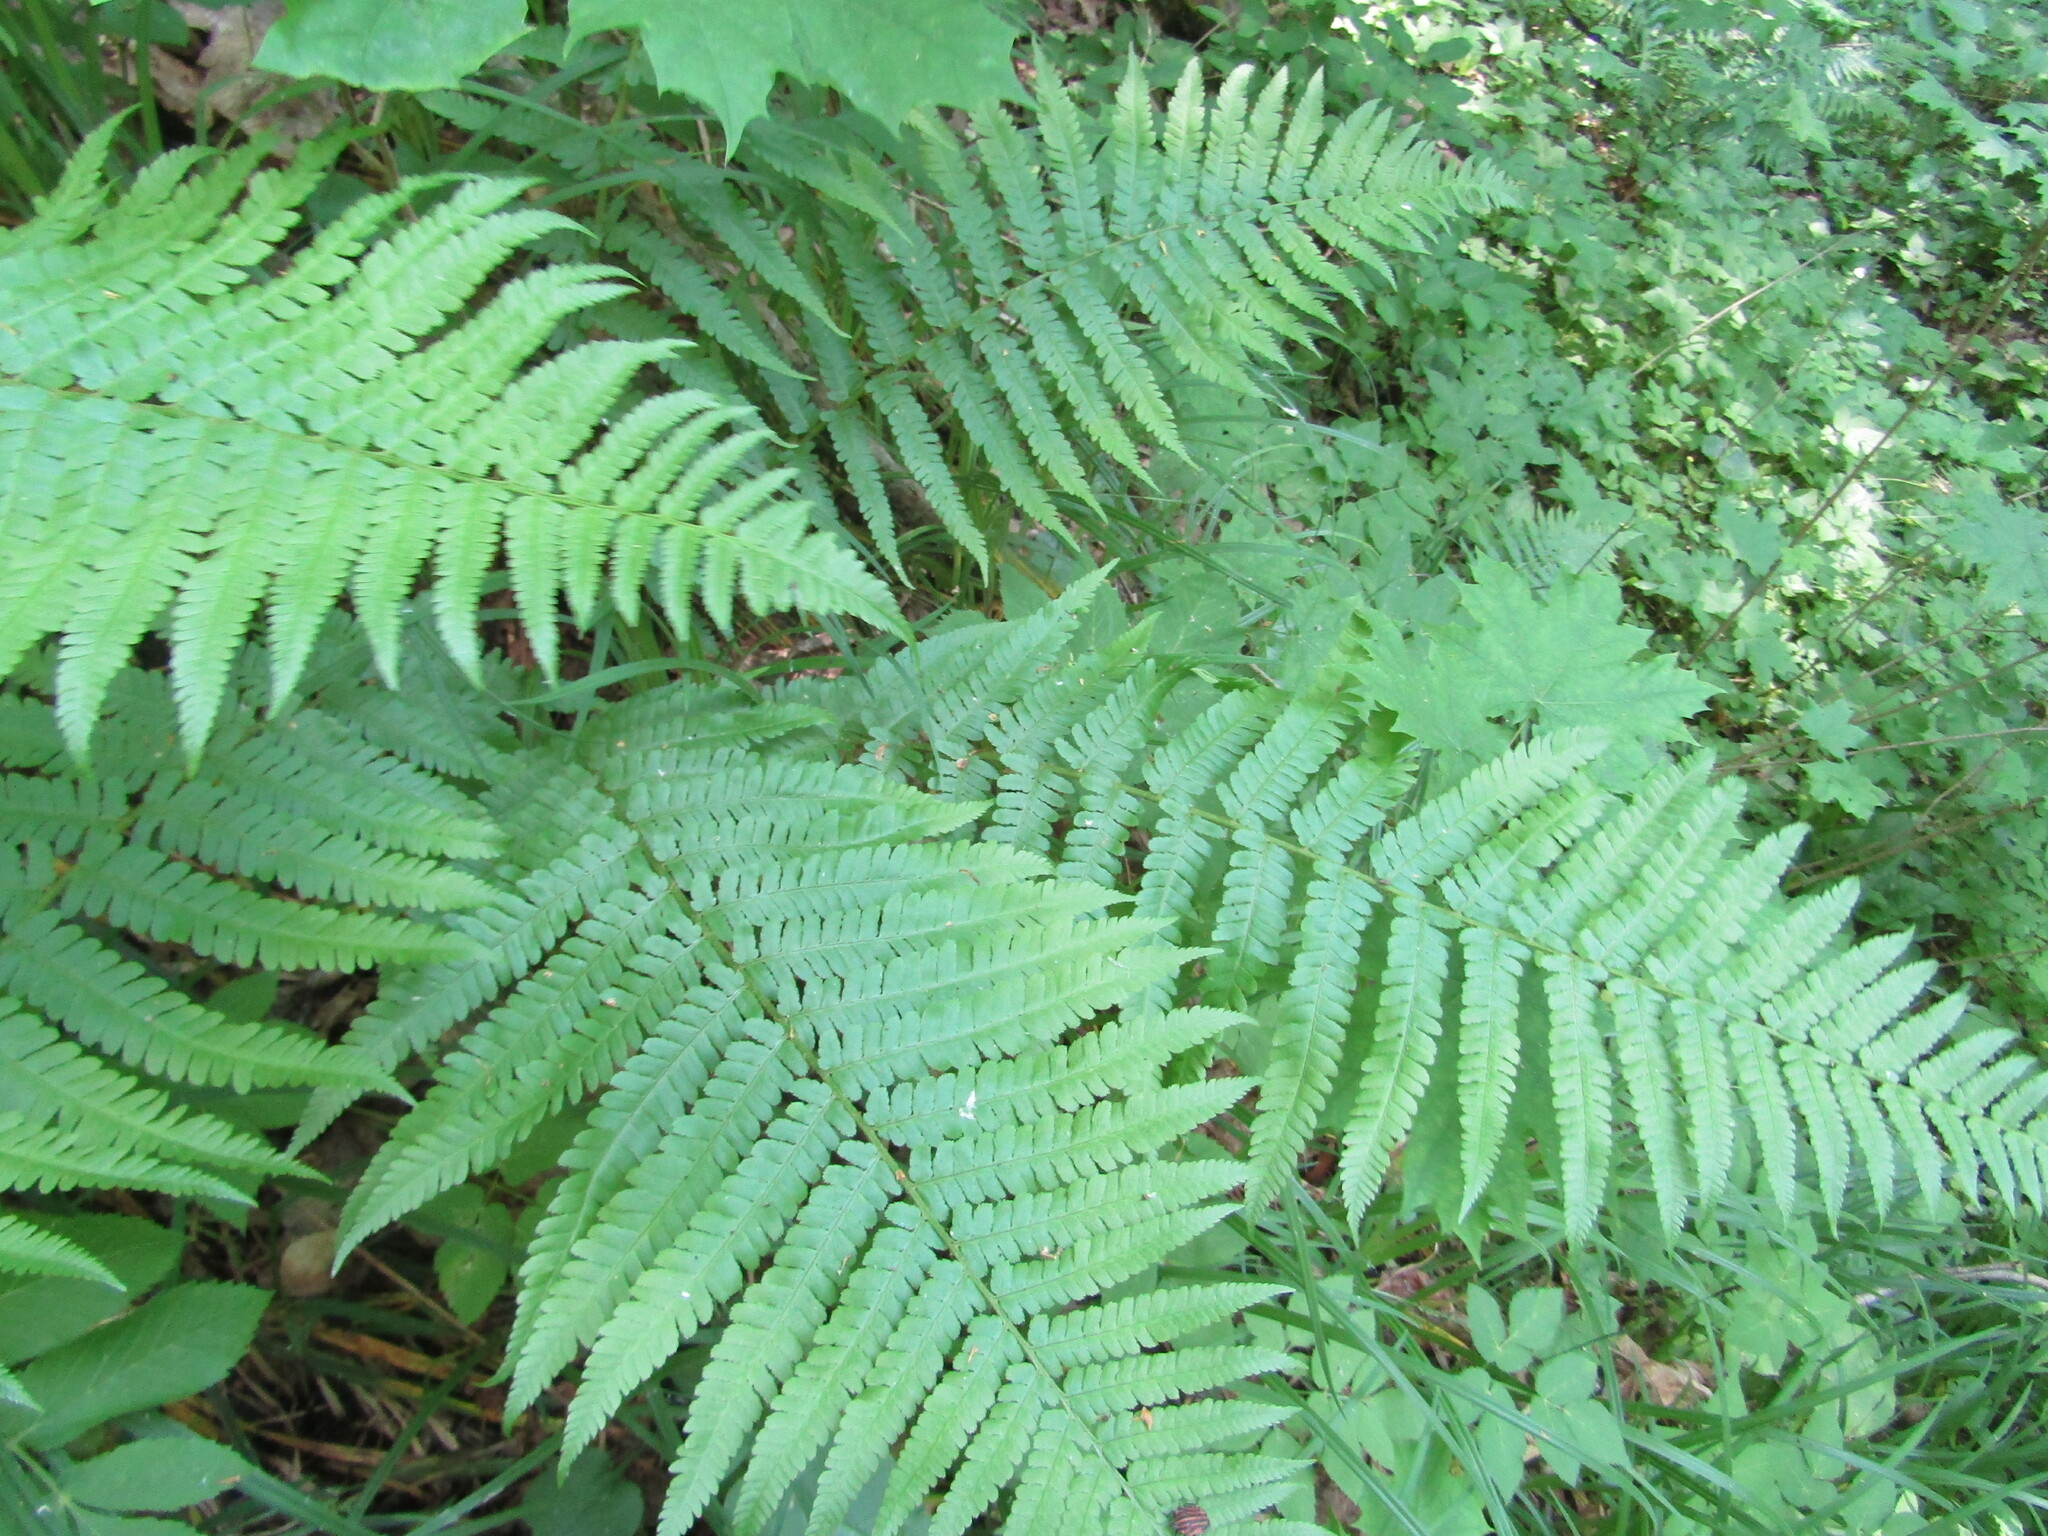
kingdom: Plantae
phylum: Tracheophyta
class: Polypodiopsida
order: Polypodiales
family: Dryopteridaceae
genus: Dryopteris
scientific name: Dryopteris filix-mas
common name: Male fern
